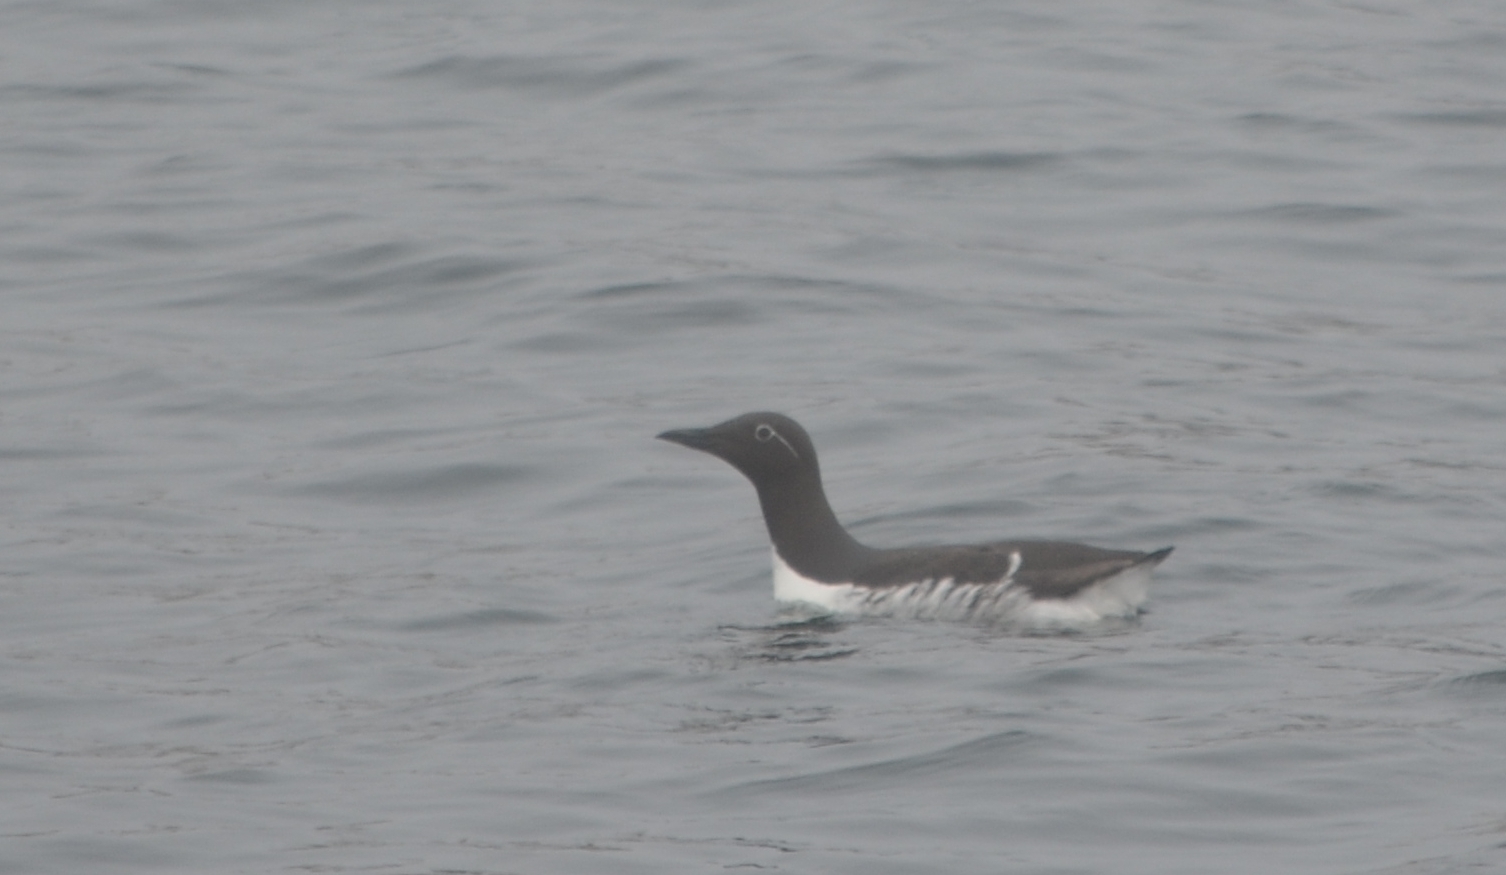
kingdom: Animalia
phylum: Chordata
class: Aves
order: Charadriiformes
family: Alcidae
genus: Uria
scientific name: Uria aalge
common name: Common murre
